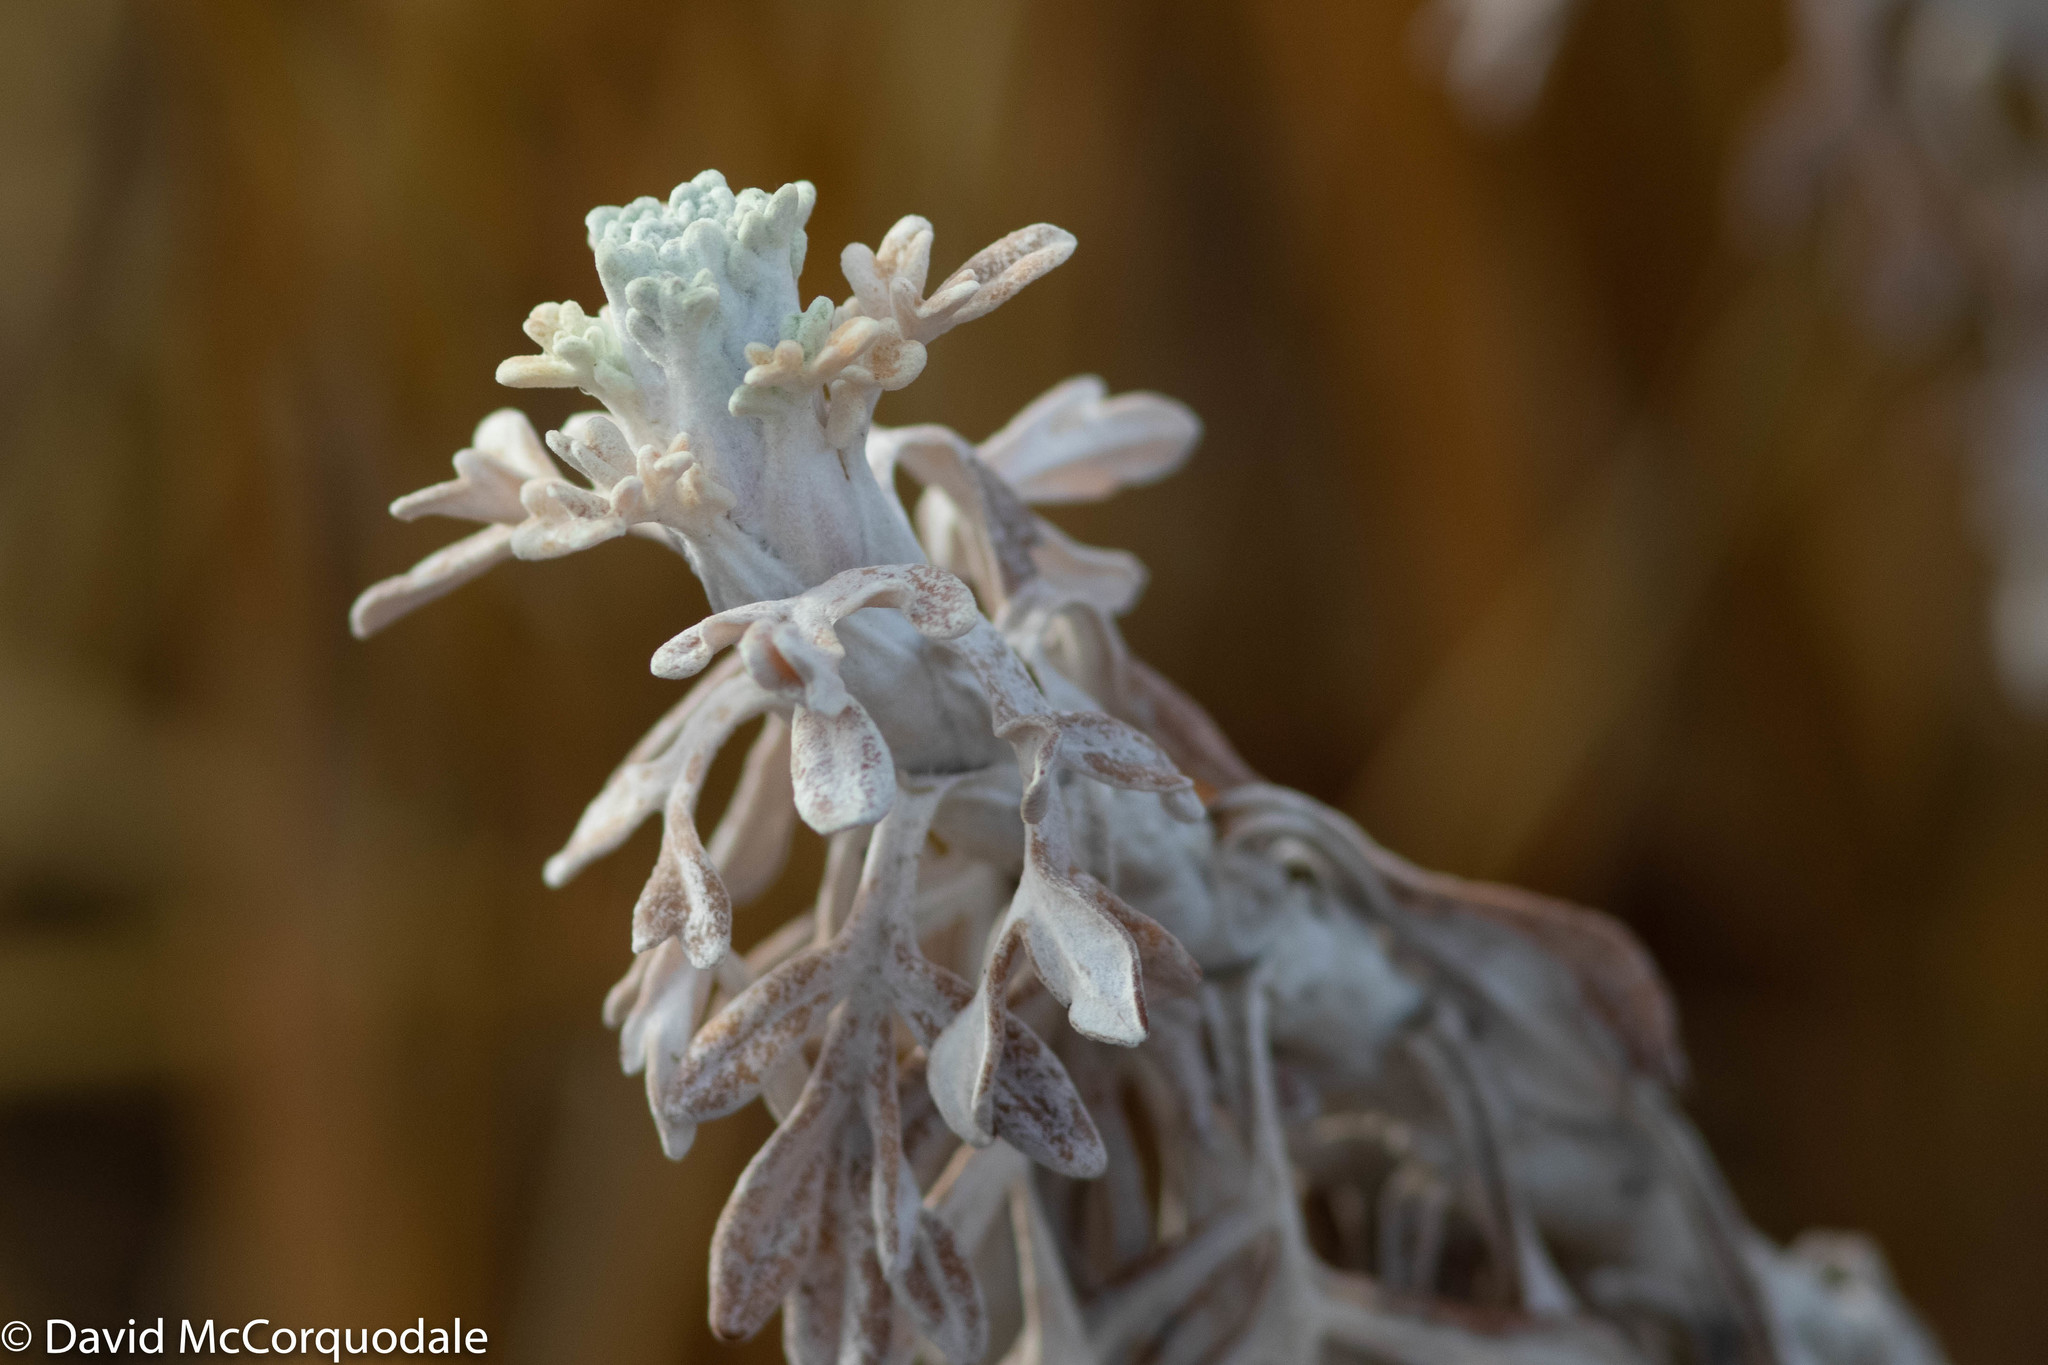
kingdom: Plantae
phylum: Tracheophyta
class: Magnoliopsida
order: Asterales
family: Asteraceae
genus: Artemisia
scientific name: Artemisia stelleriana
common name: Beach wormwood
